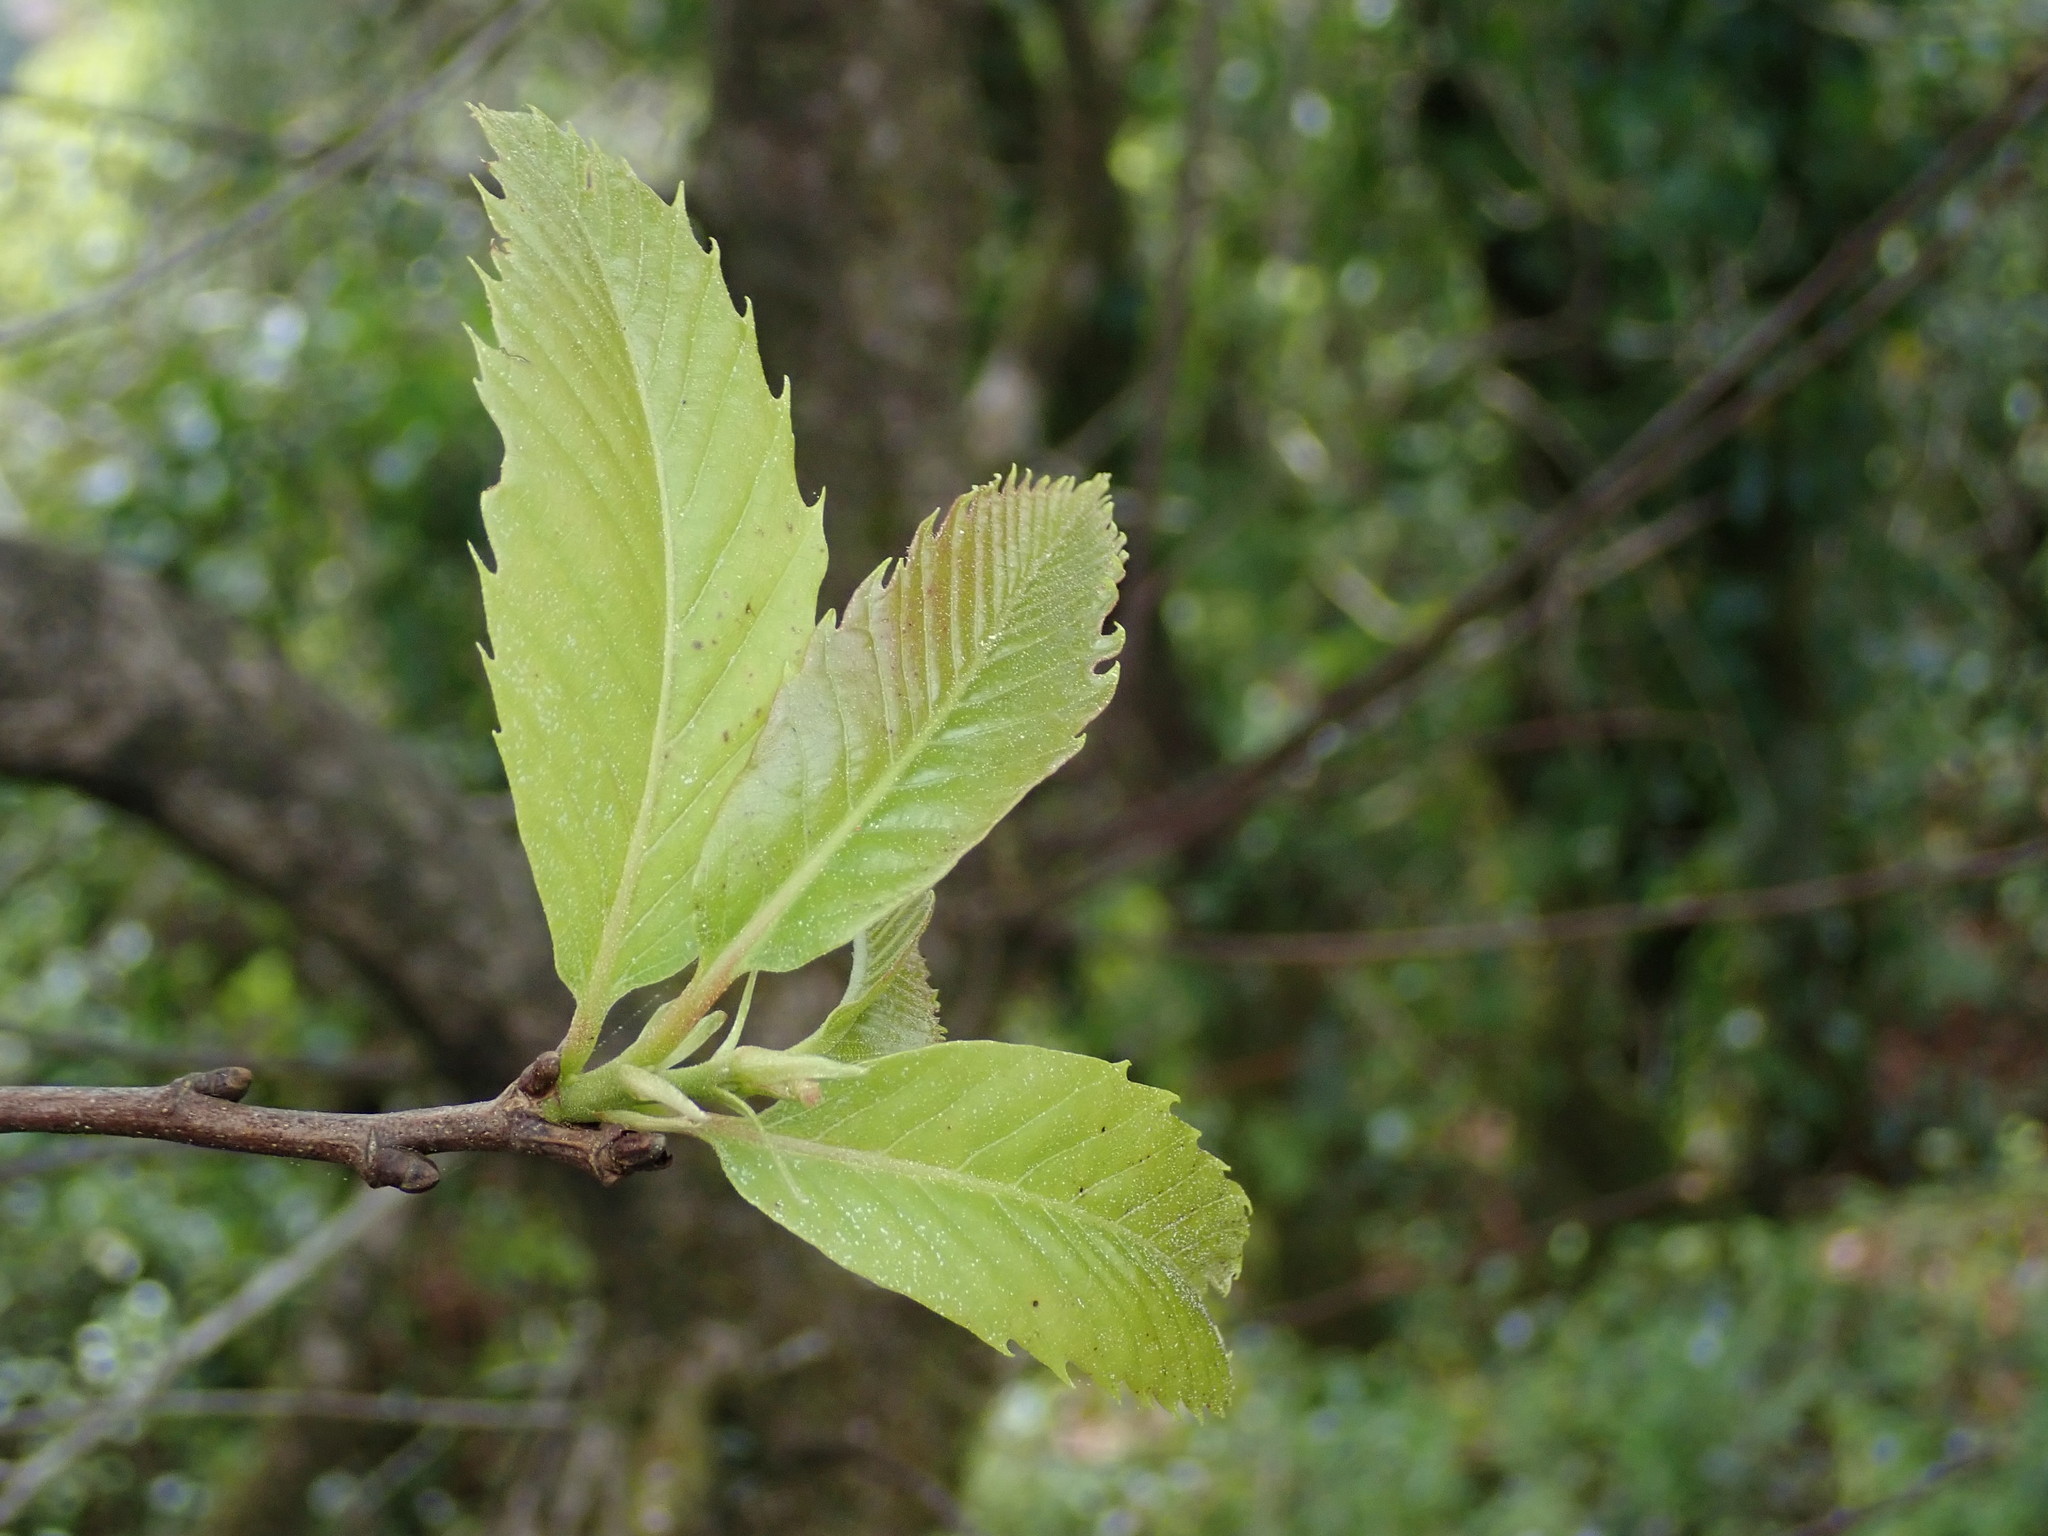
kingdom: Plantae
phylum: Tracheophyta
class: Magnoliopsida
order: Fagales
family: Fagaceae
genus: Castanea
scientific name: Castanea sativa
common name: Sweet chestnut
